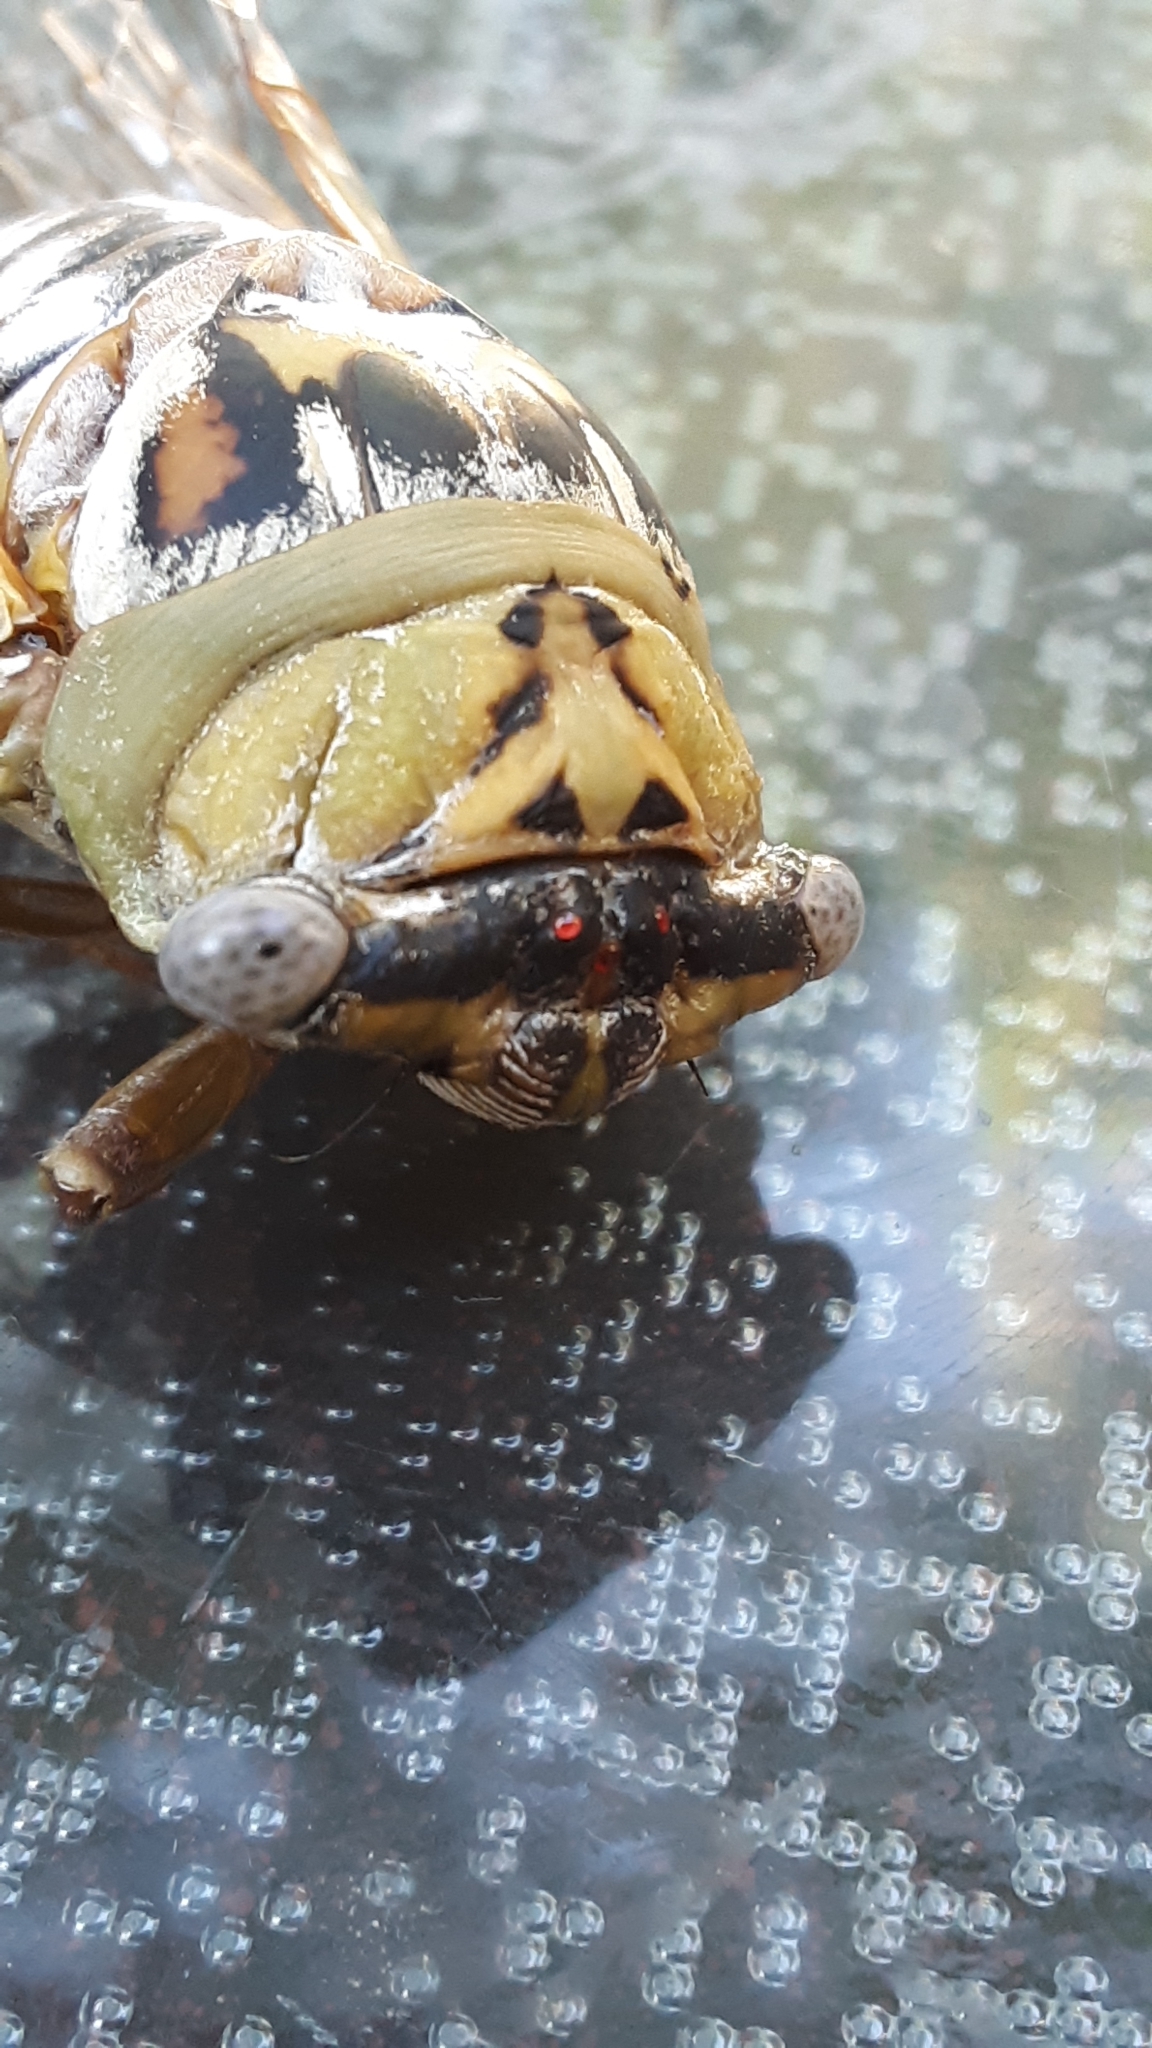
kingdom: Animalia
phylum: Arthropoda
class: Insecta
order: Hemiptera
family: Cicadidae
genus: Megatibicen
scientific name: Megatibicen dealbatus
